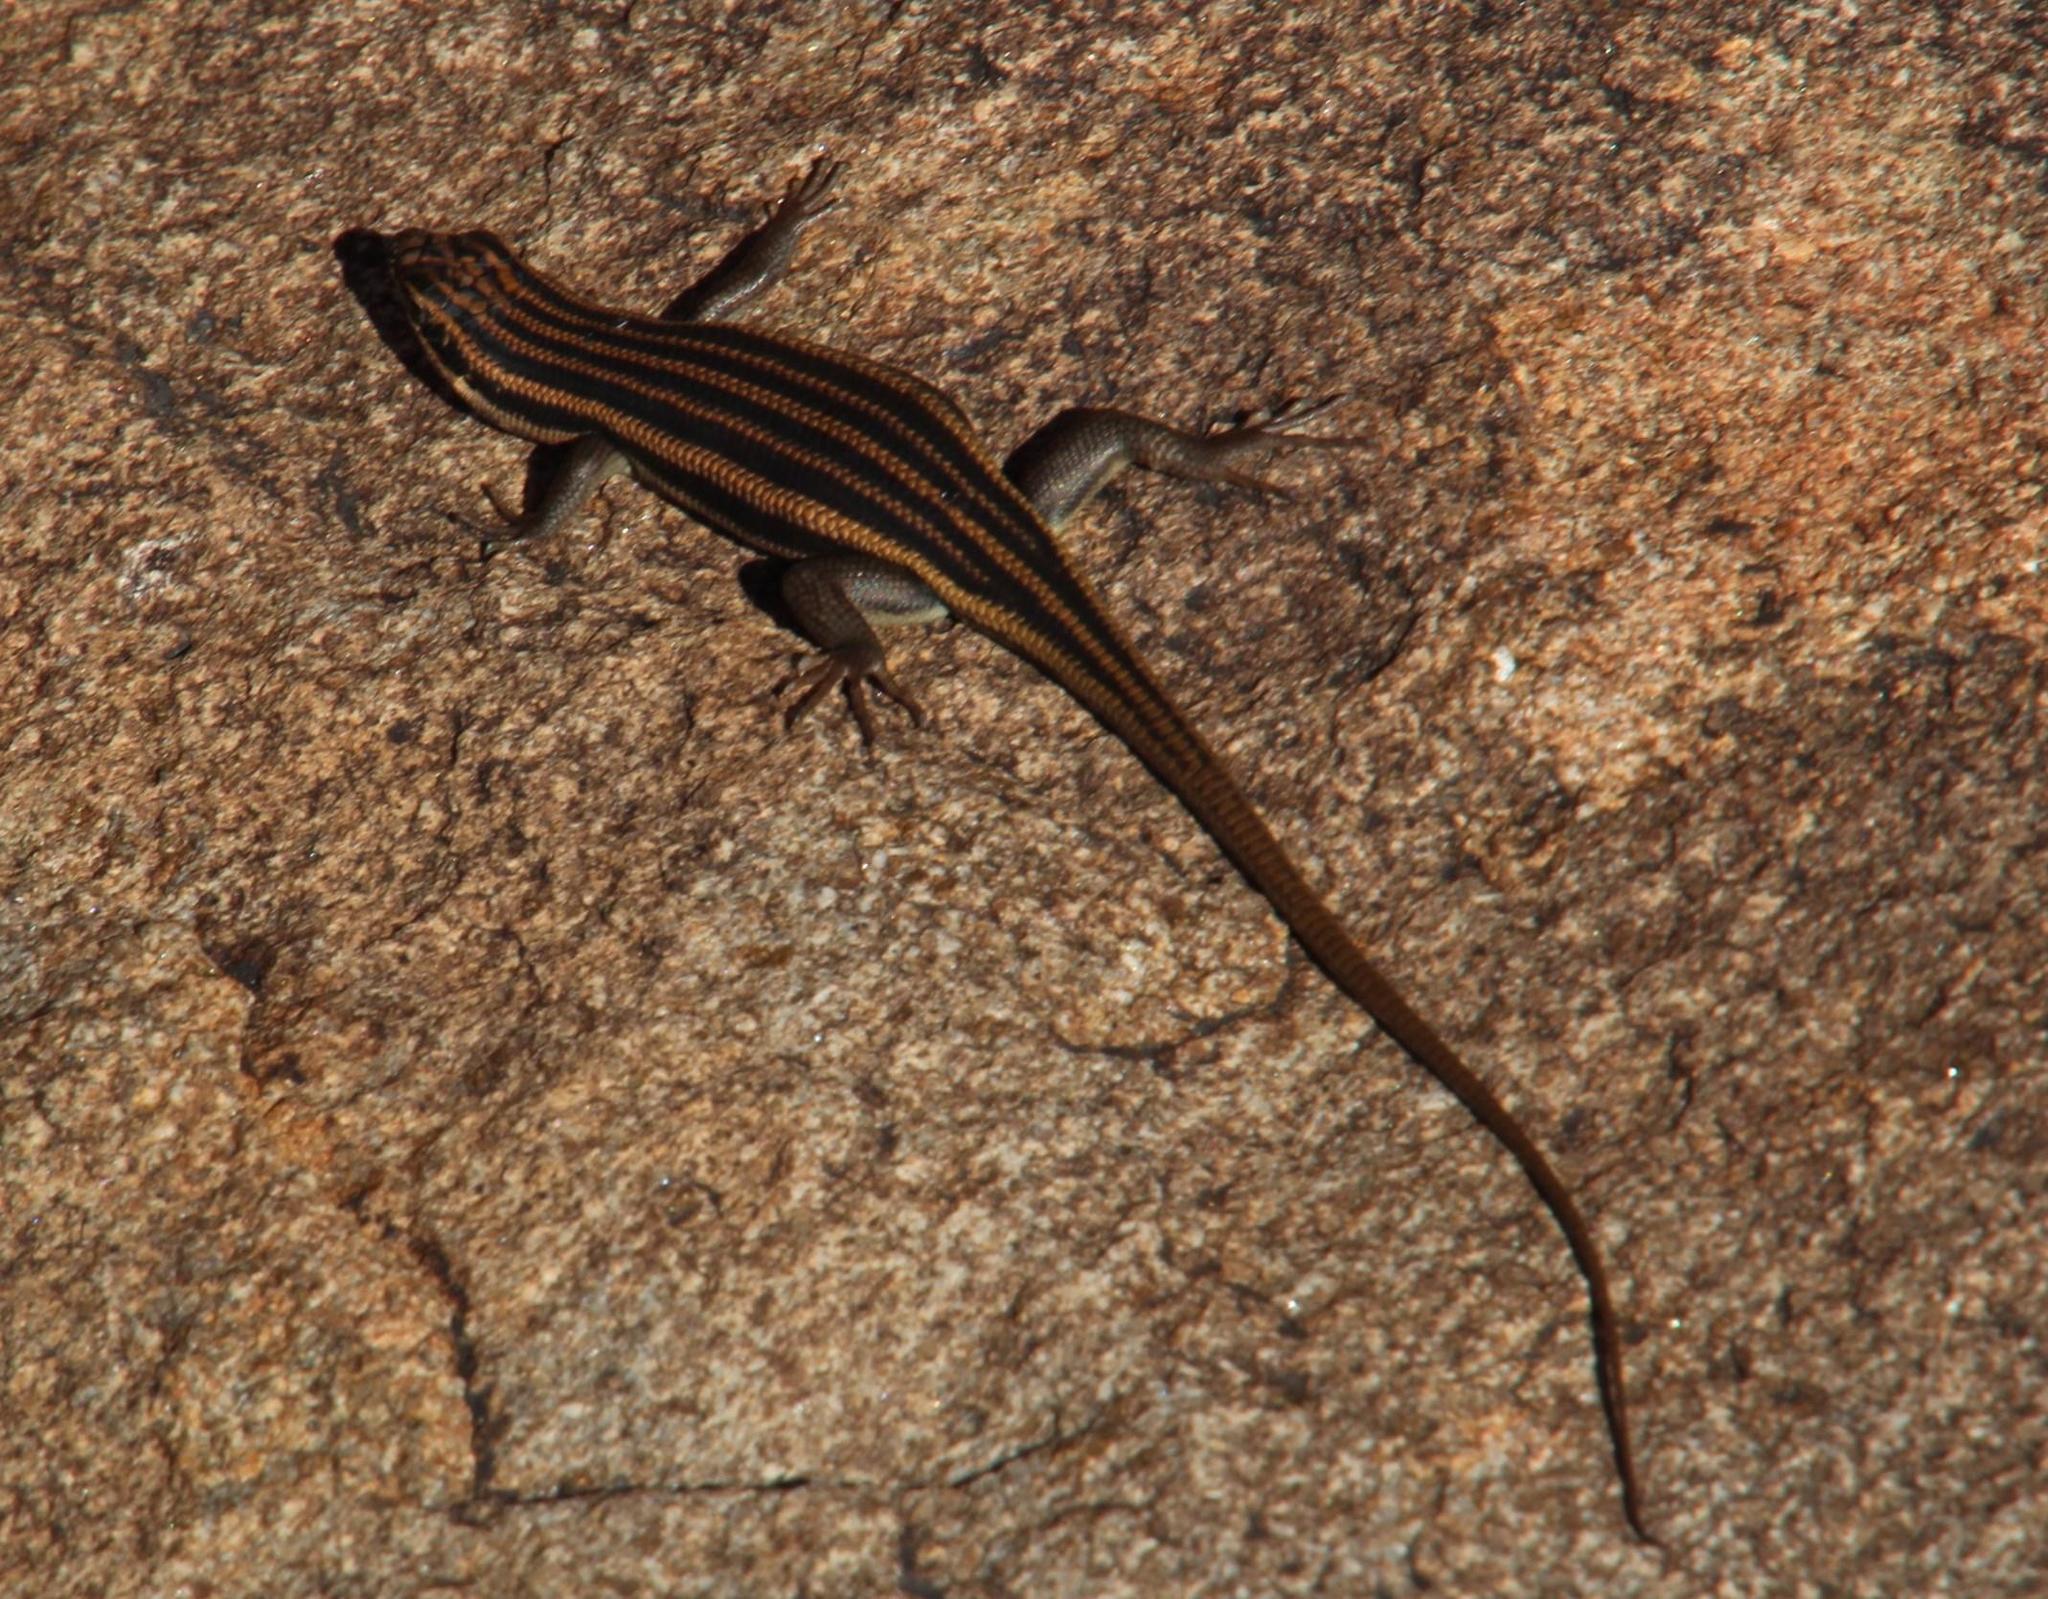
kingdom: Animalia
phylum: Chordata
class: Squamata
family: Scincidae
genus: Trachylepis
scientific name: Trachylepis sulcata
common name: Western rock skink
